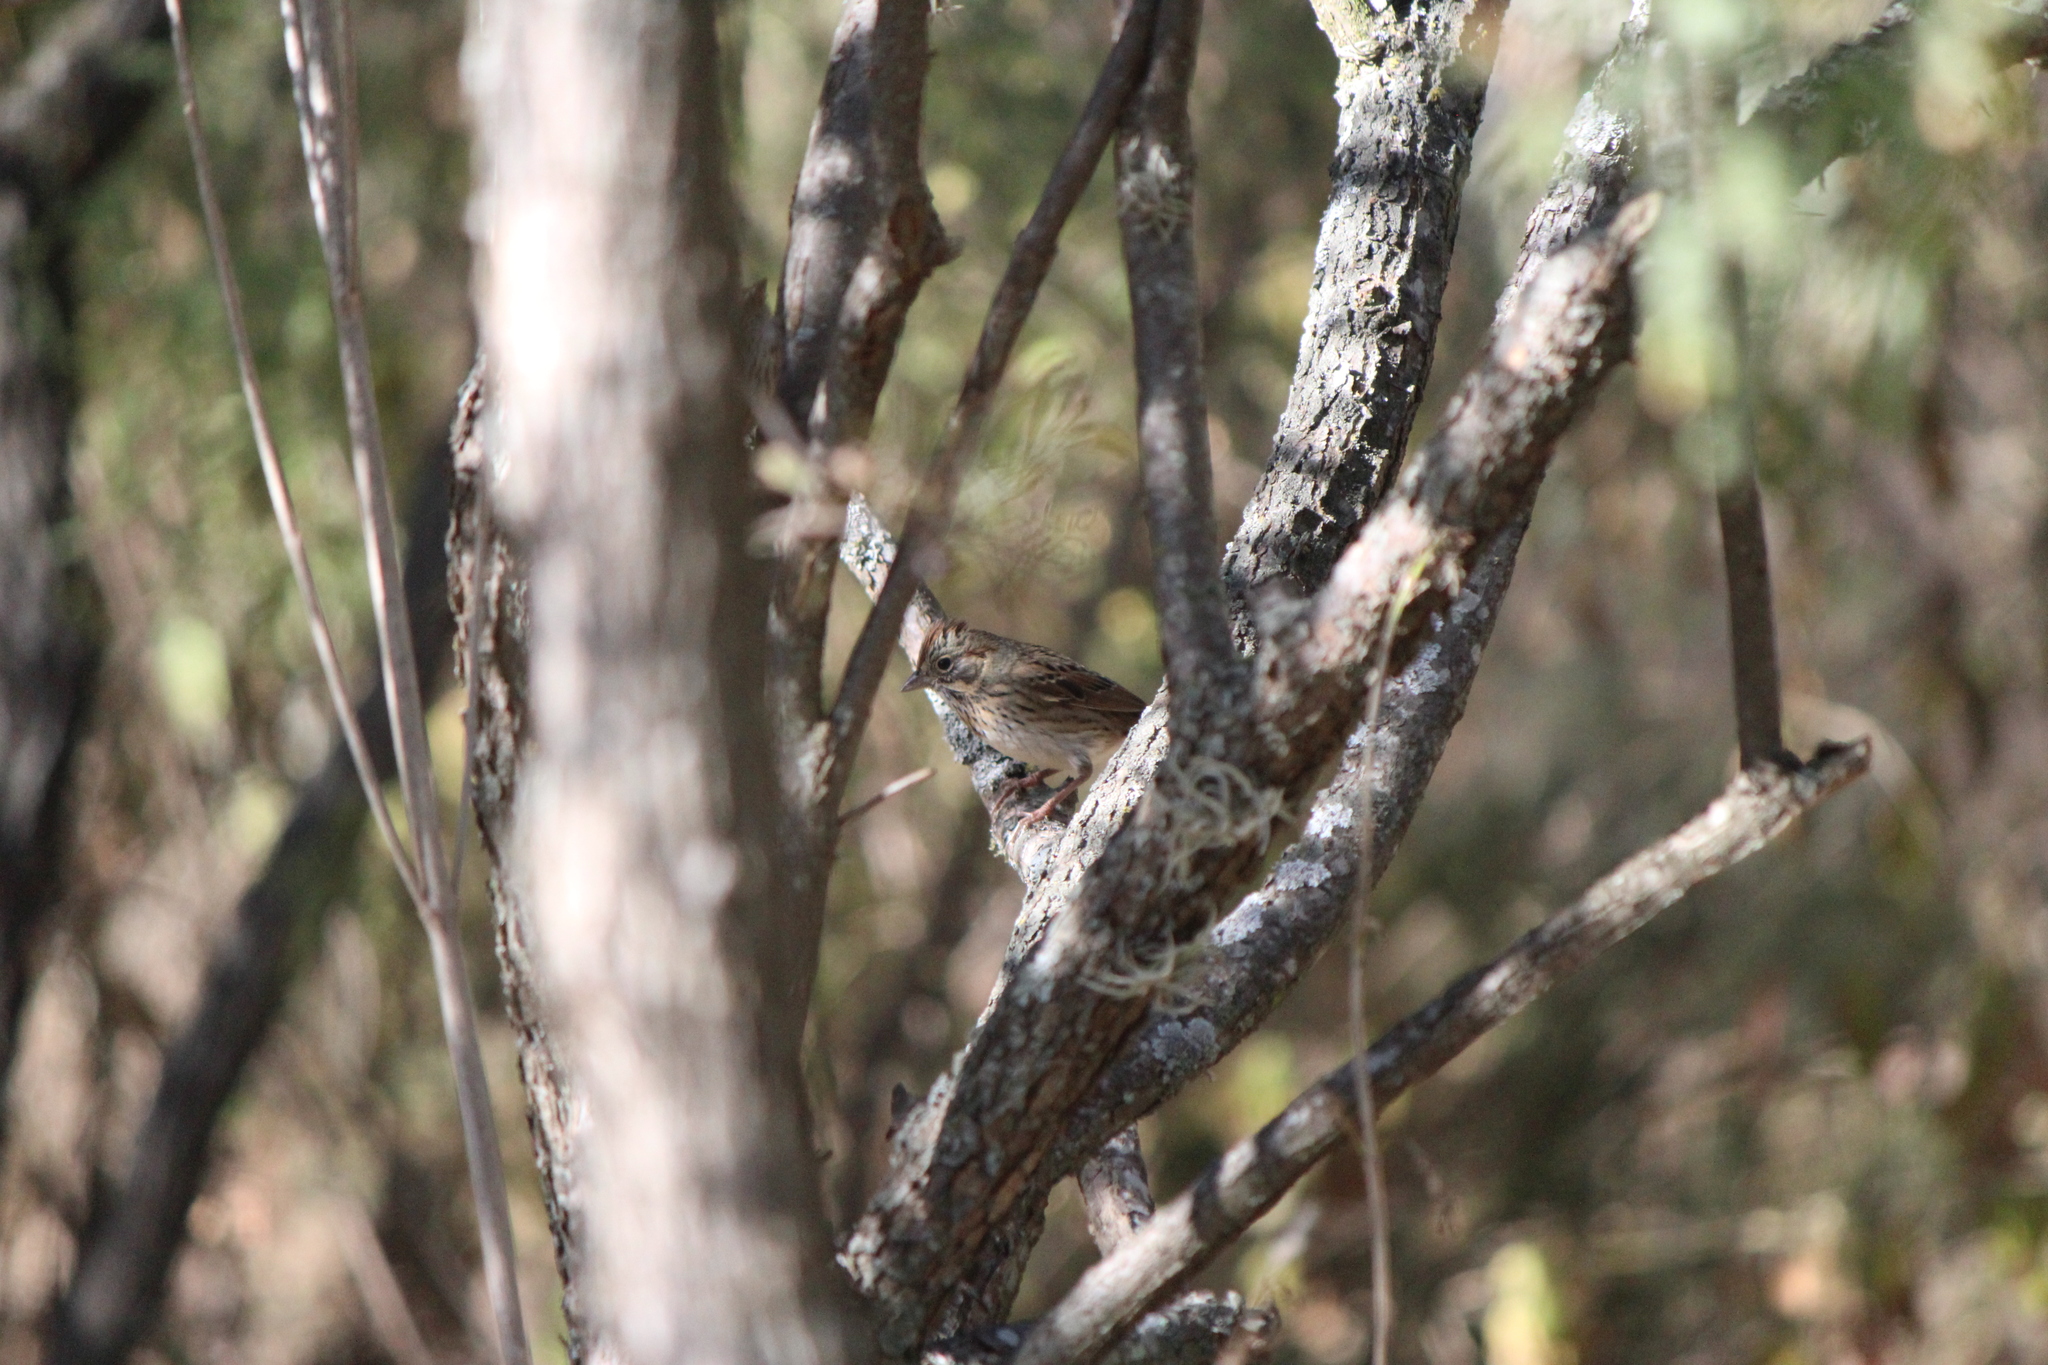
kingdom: Animalia
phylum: Chordata
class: Aves
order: Passeriformes
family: Passerellidae
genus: Melospiza
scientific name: Melospiza lincolnii
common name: Lincoln's sparrow
